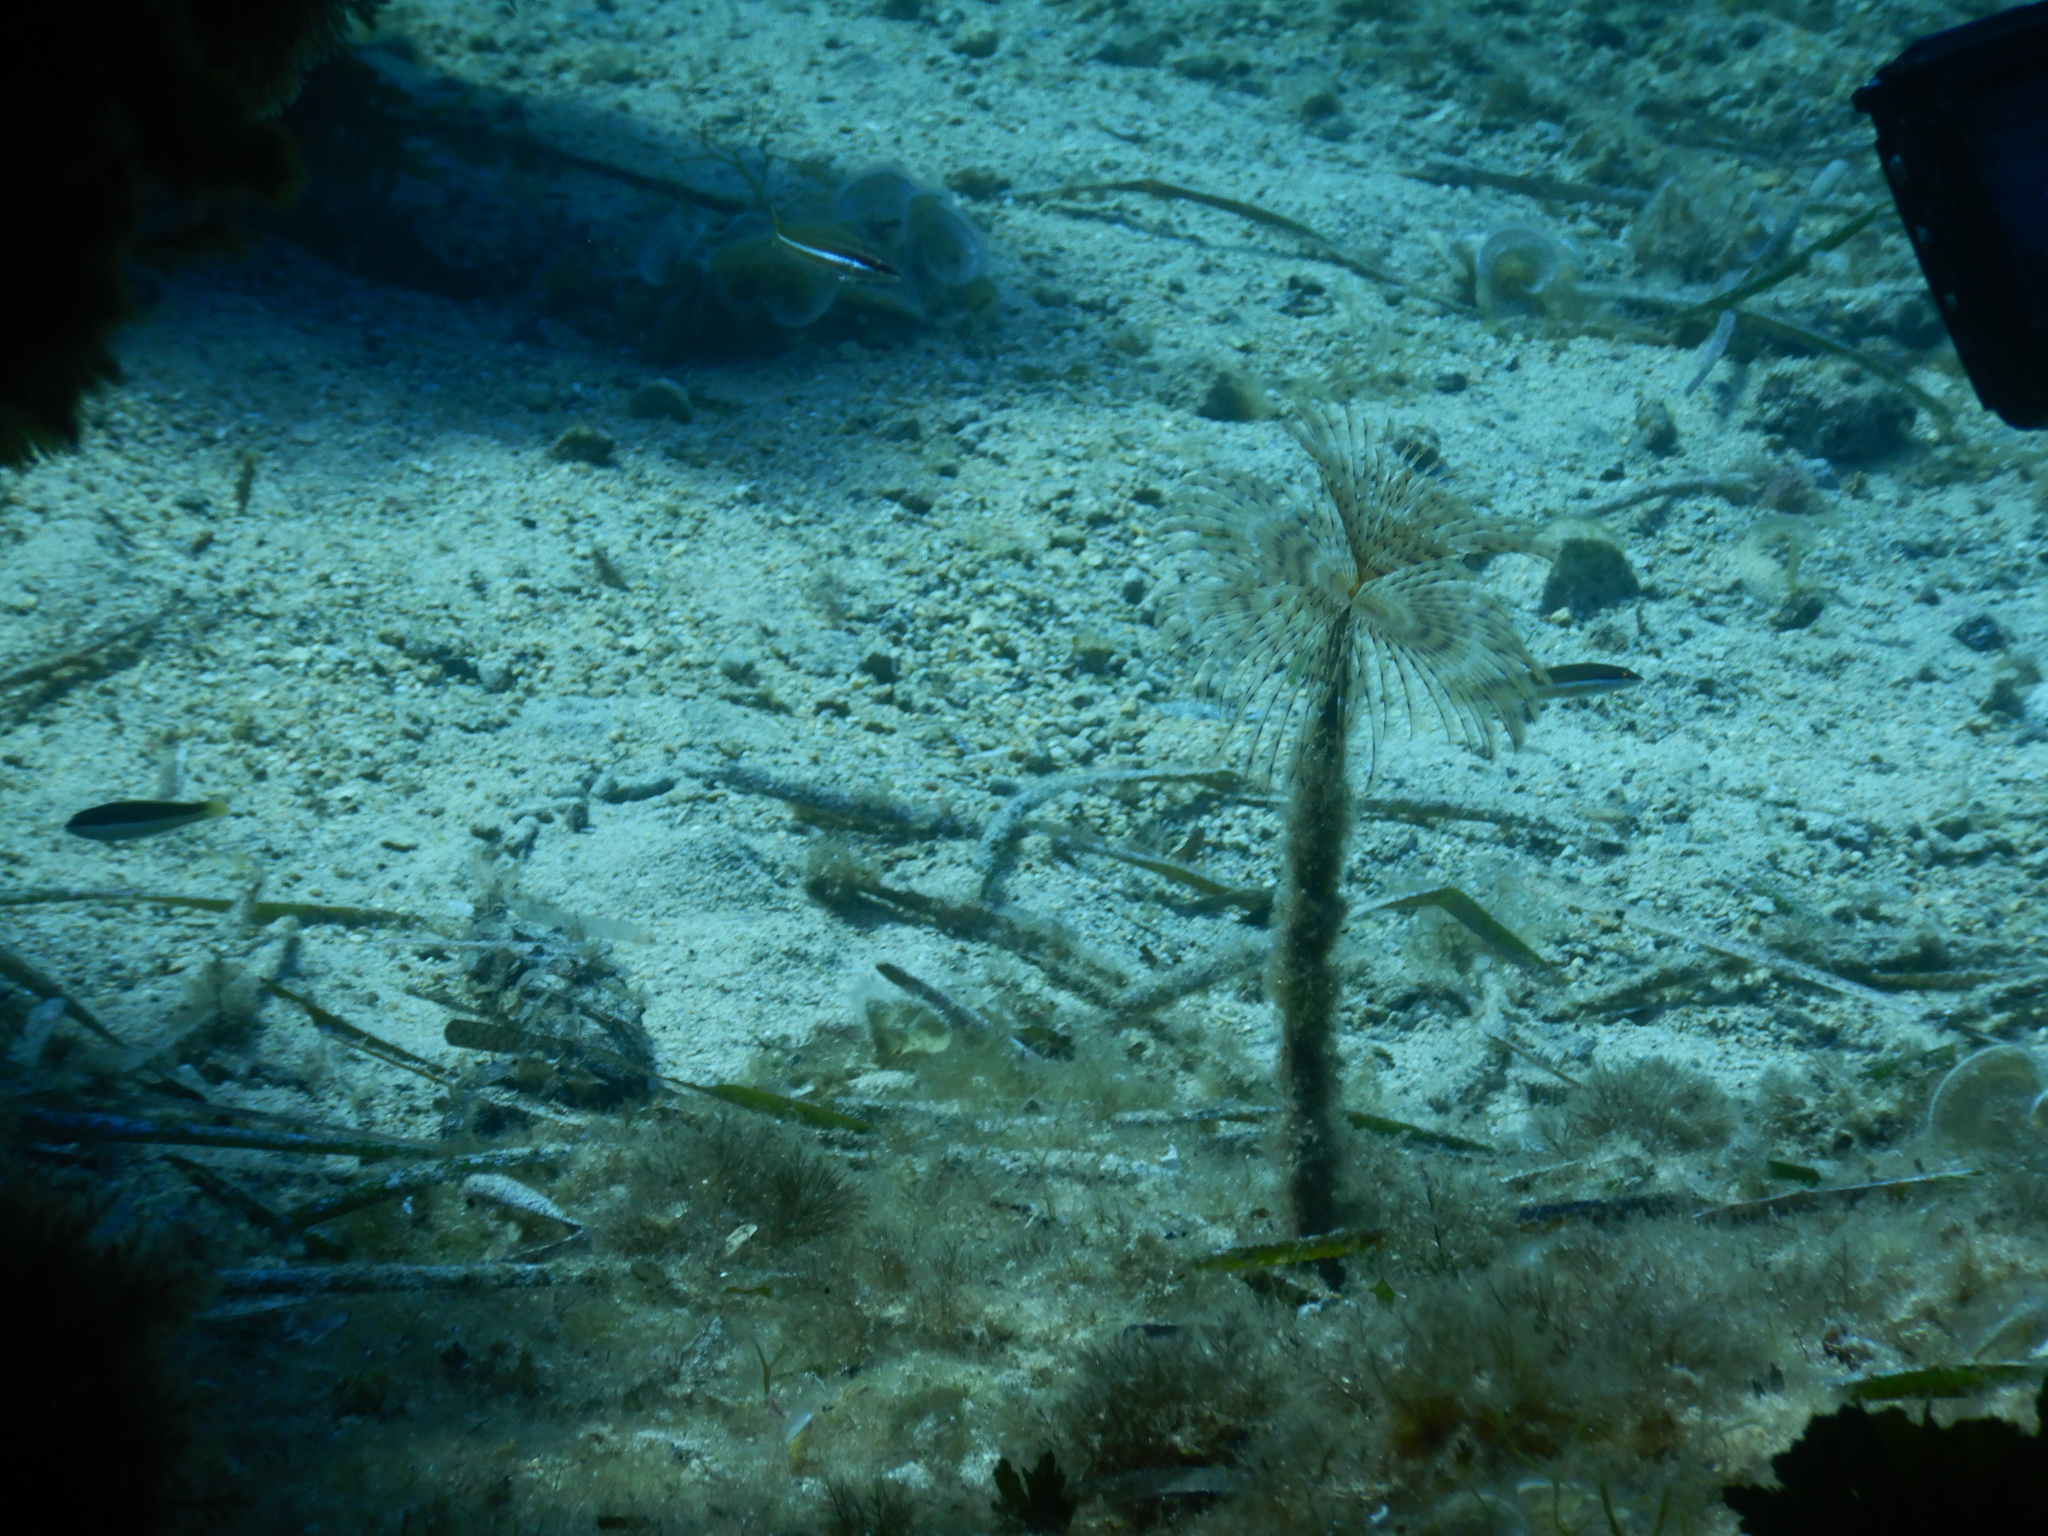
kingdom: Animalia
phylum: Annelida
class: Polychaeta
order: Sabellida
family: Sabellidae
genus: Sabella
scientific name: Sabella spallanzanii
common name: Feather duster worm
